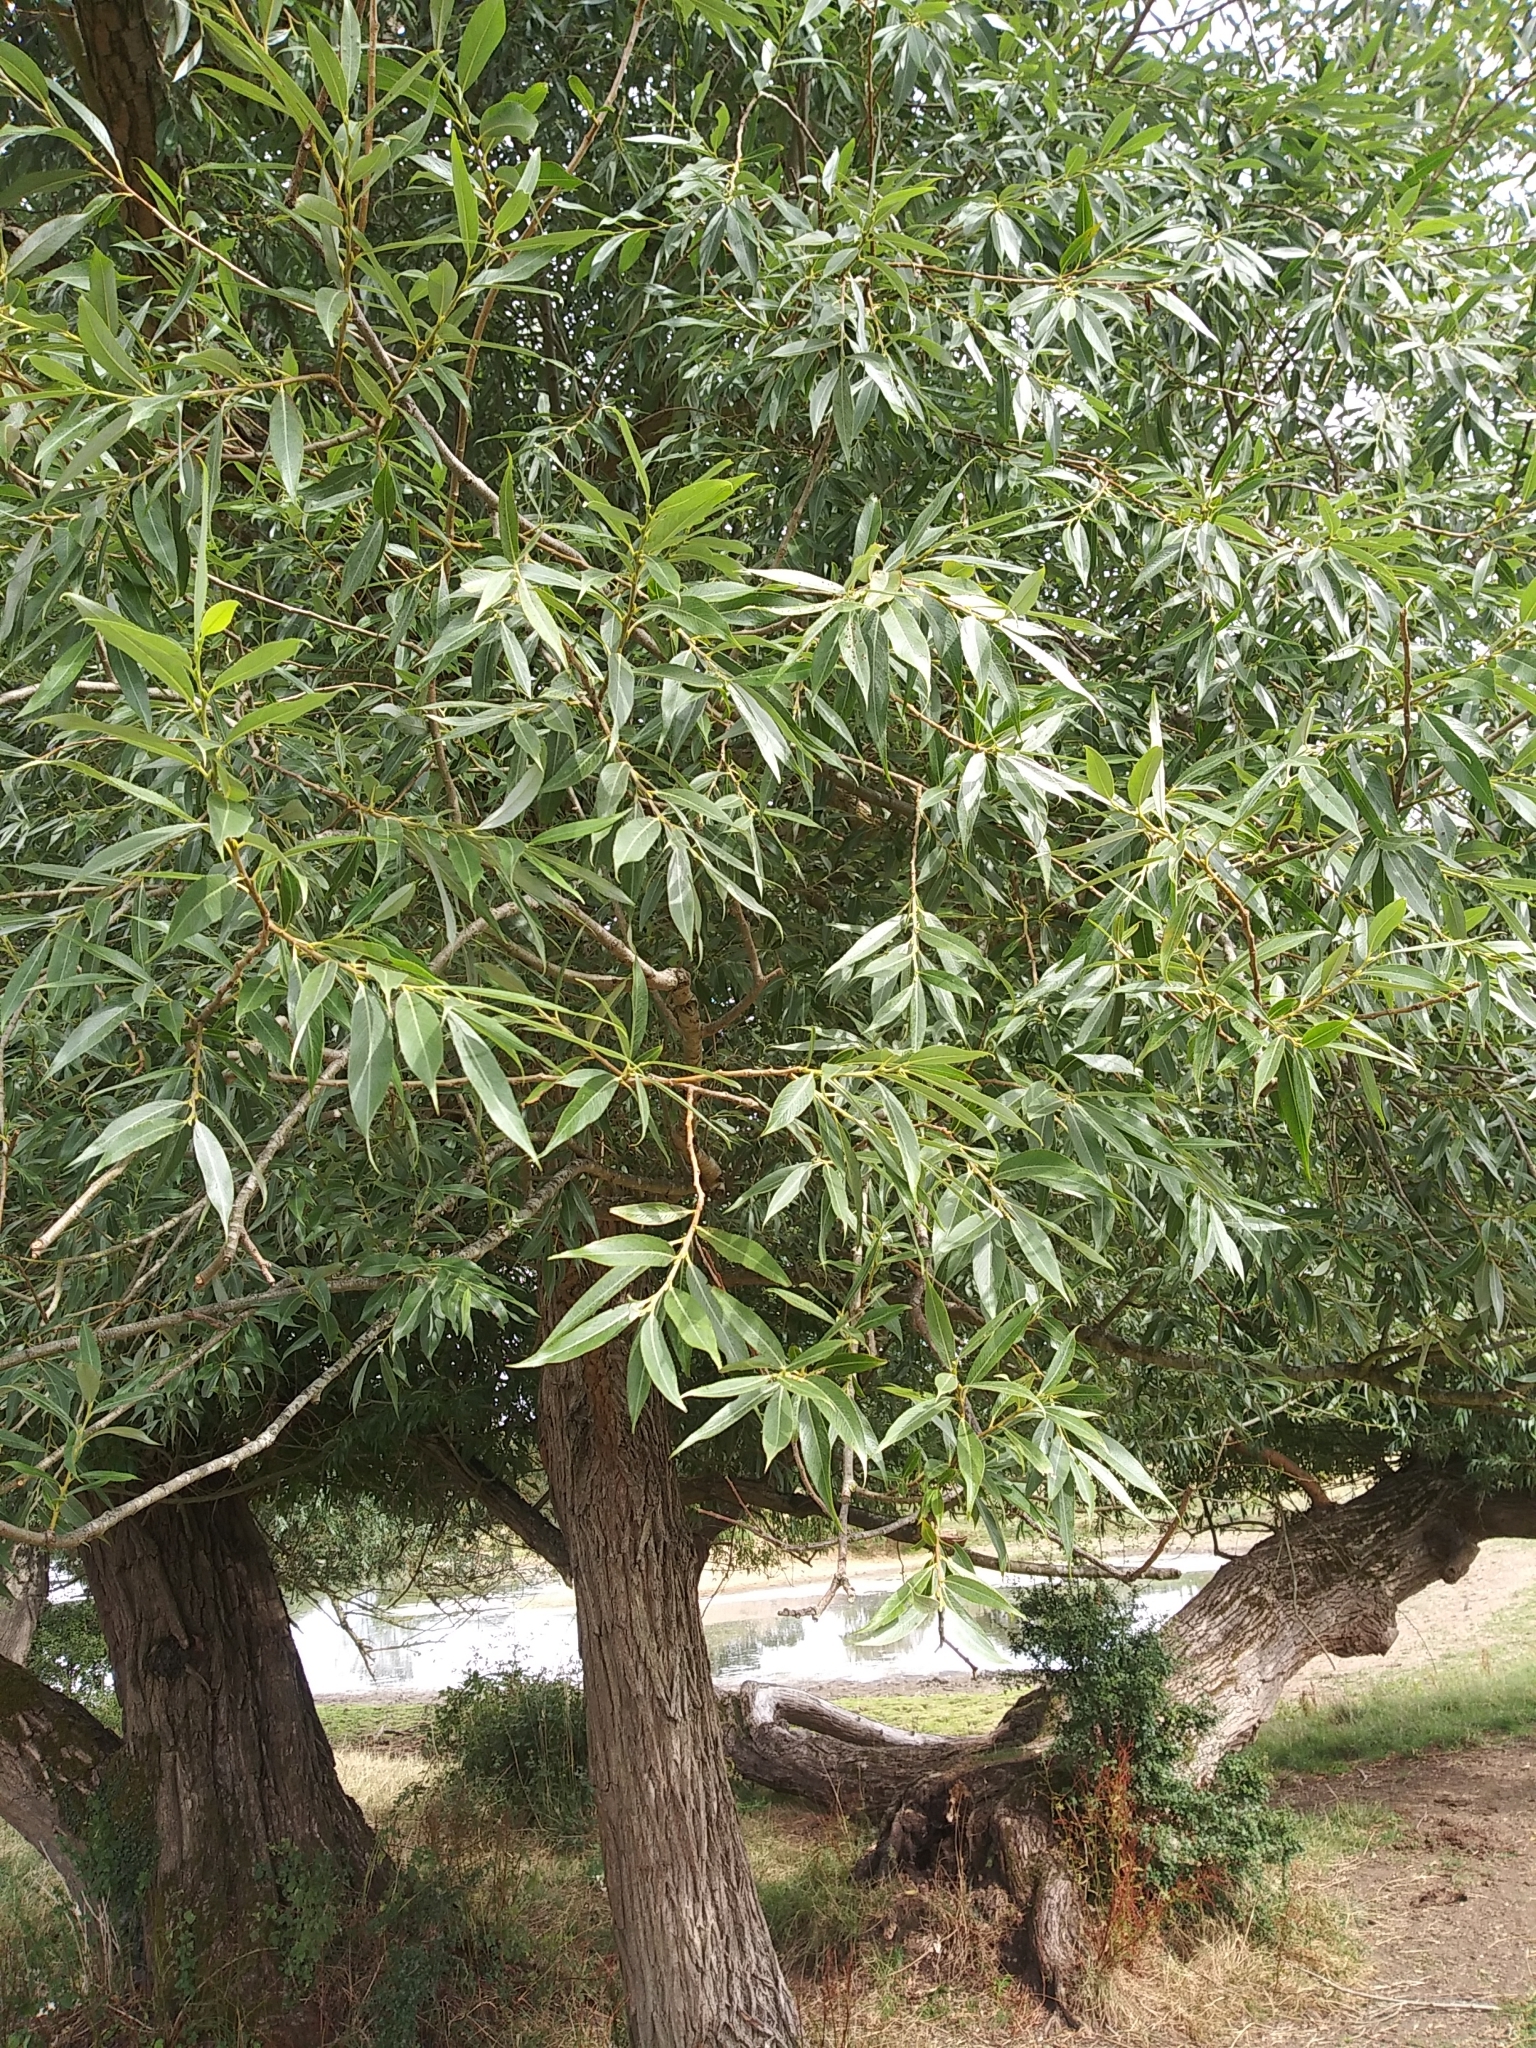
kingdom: Plantae
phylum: Tracheophyta
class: Magnoliopsida
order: Malpighiales
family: Salicaceae
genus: Salix
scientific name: Salix alba
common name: White willow
